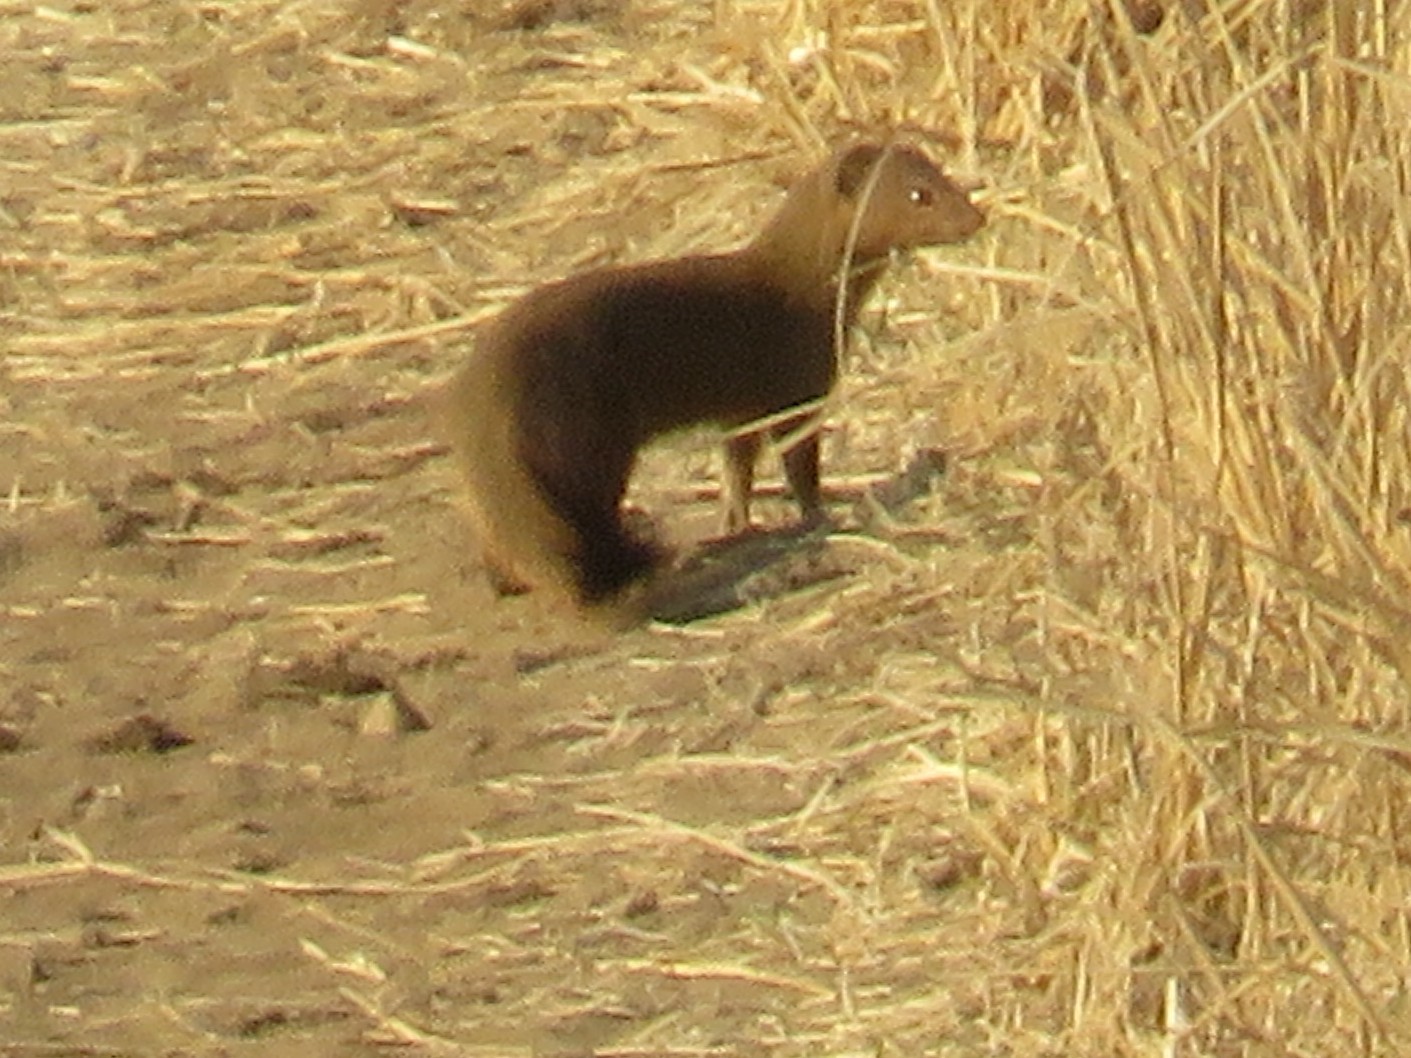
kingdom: Animalia
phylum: Chordata
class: Mammalia
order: Carnivora
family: Herpestidae
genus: Galerella
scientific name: Galerella sanguinea
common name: Slender mongoose
